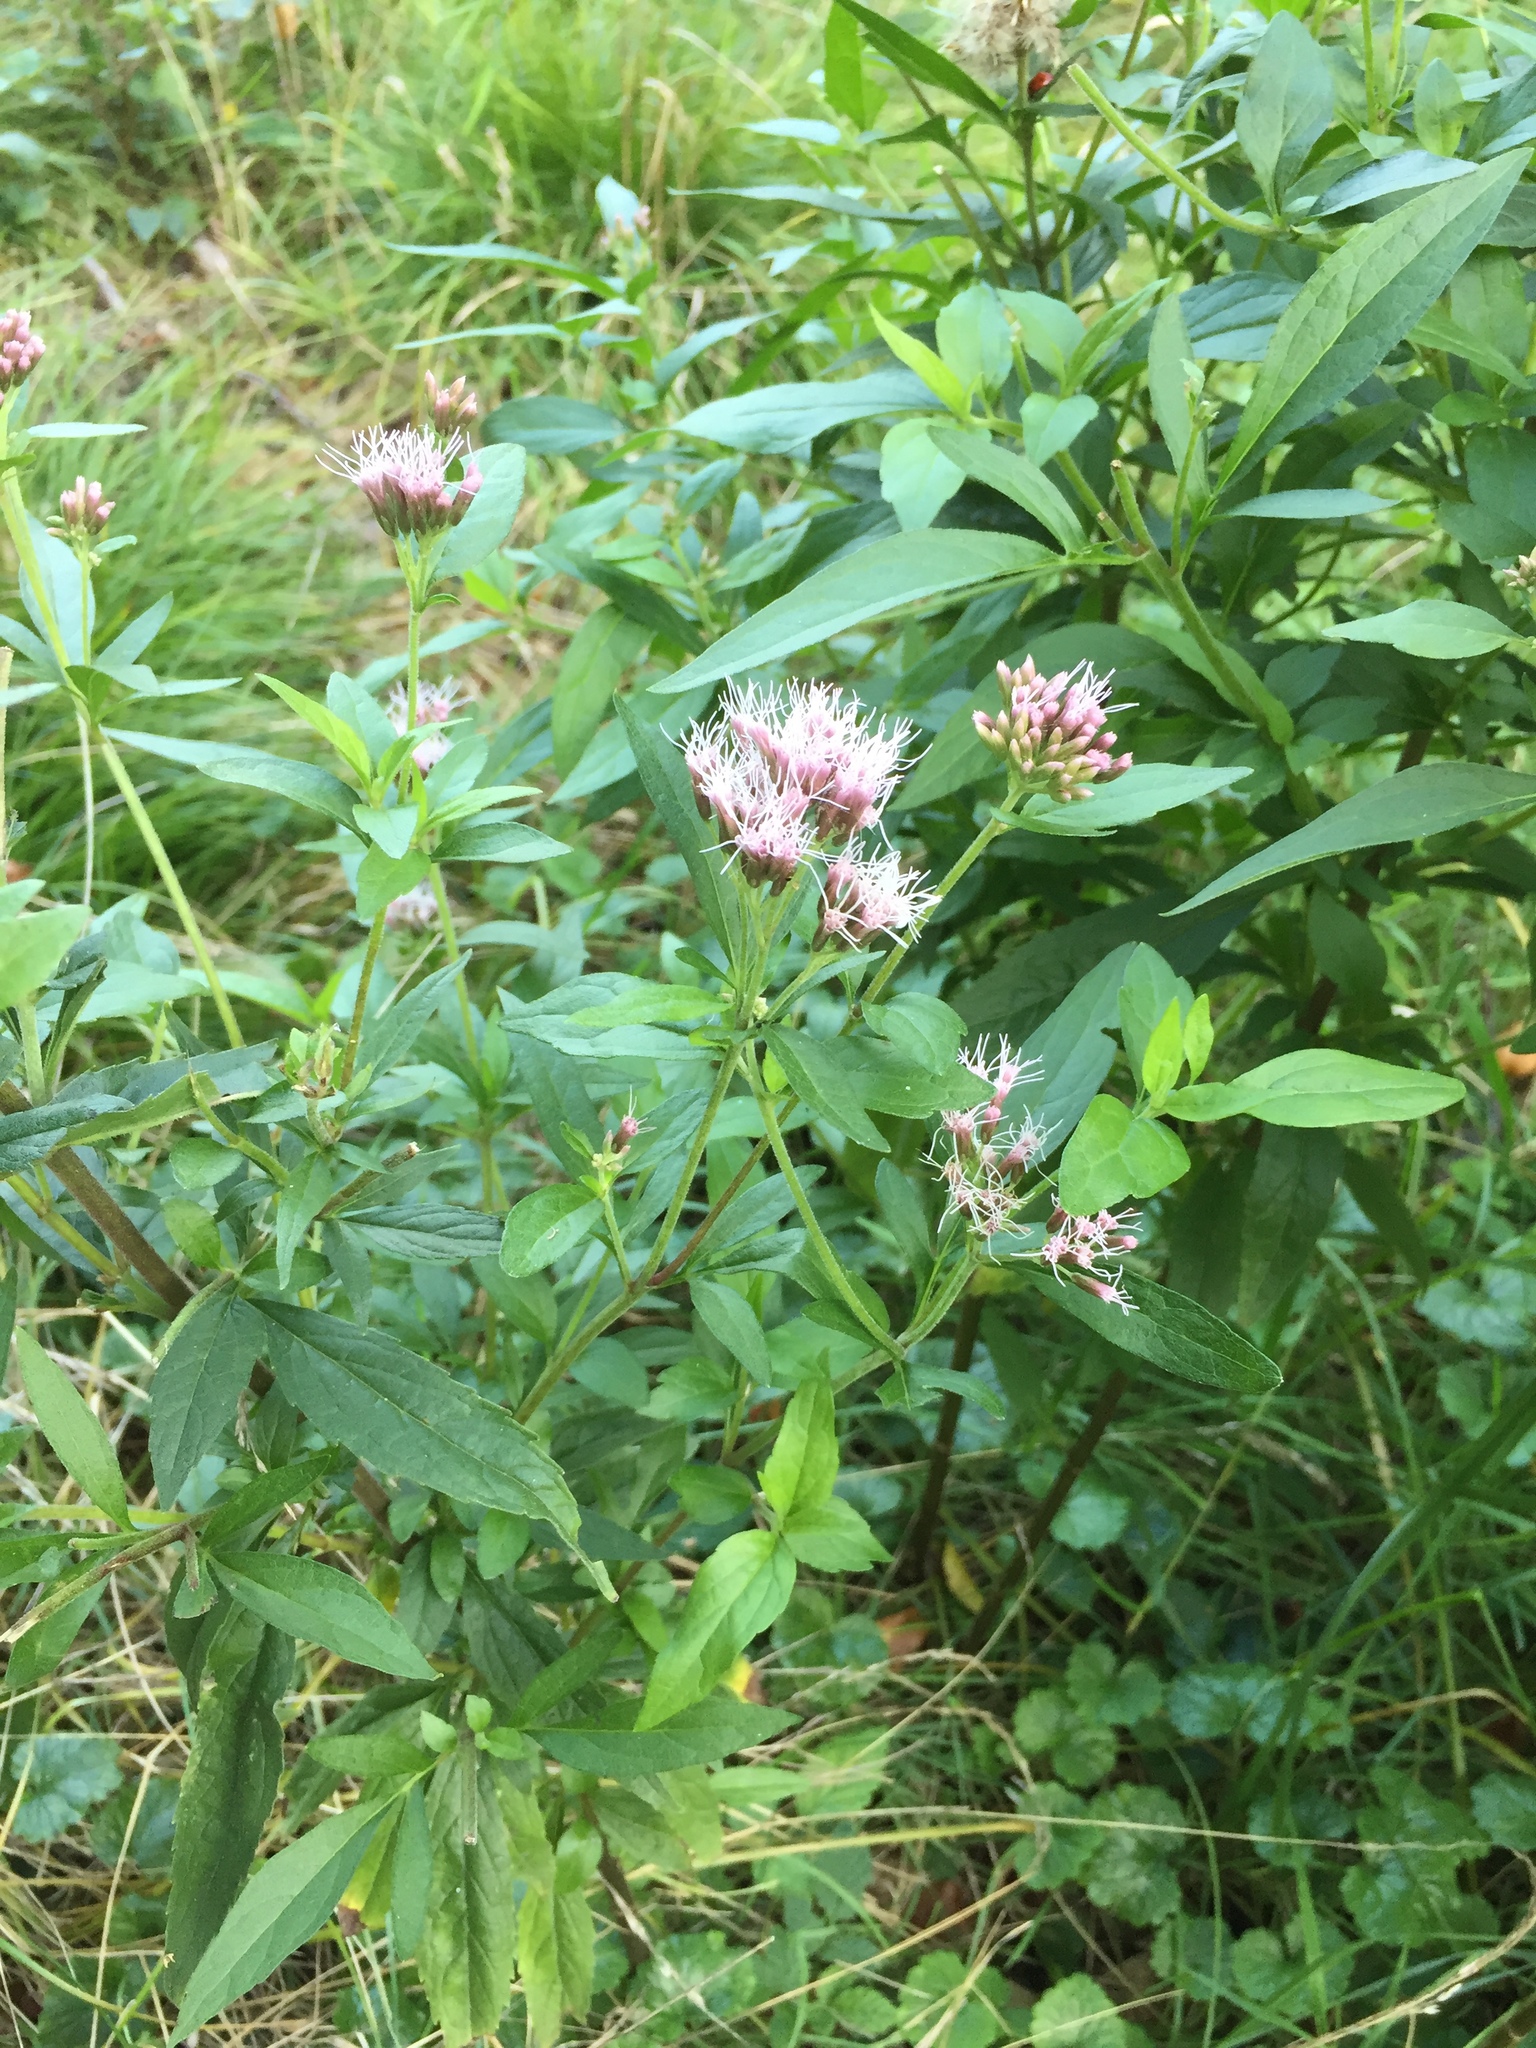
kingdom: Plantae
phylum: Tracheophyta
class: Magnoliopsida
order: Asterales
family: Asteraceae
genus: Eupatorium
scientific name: Eupatorium cannabinum
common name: Hemp-agrimony
